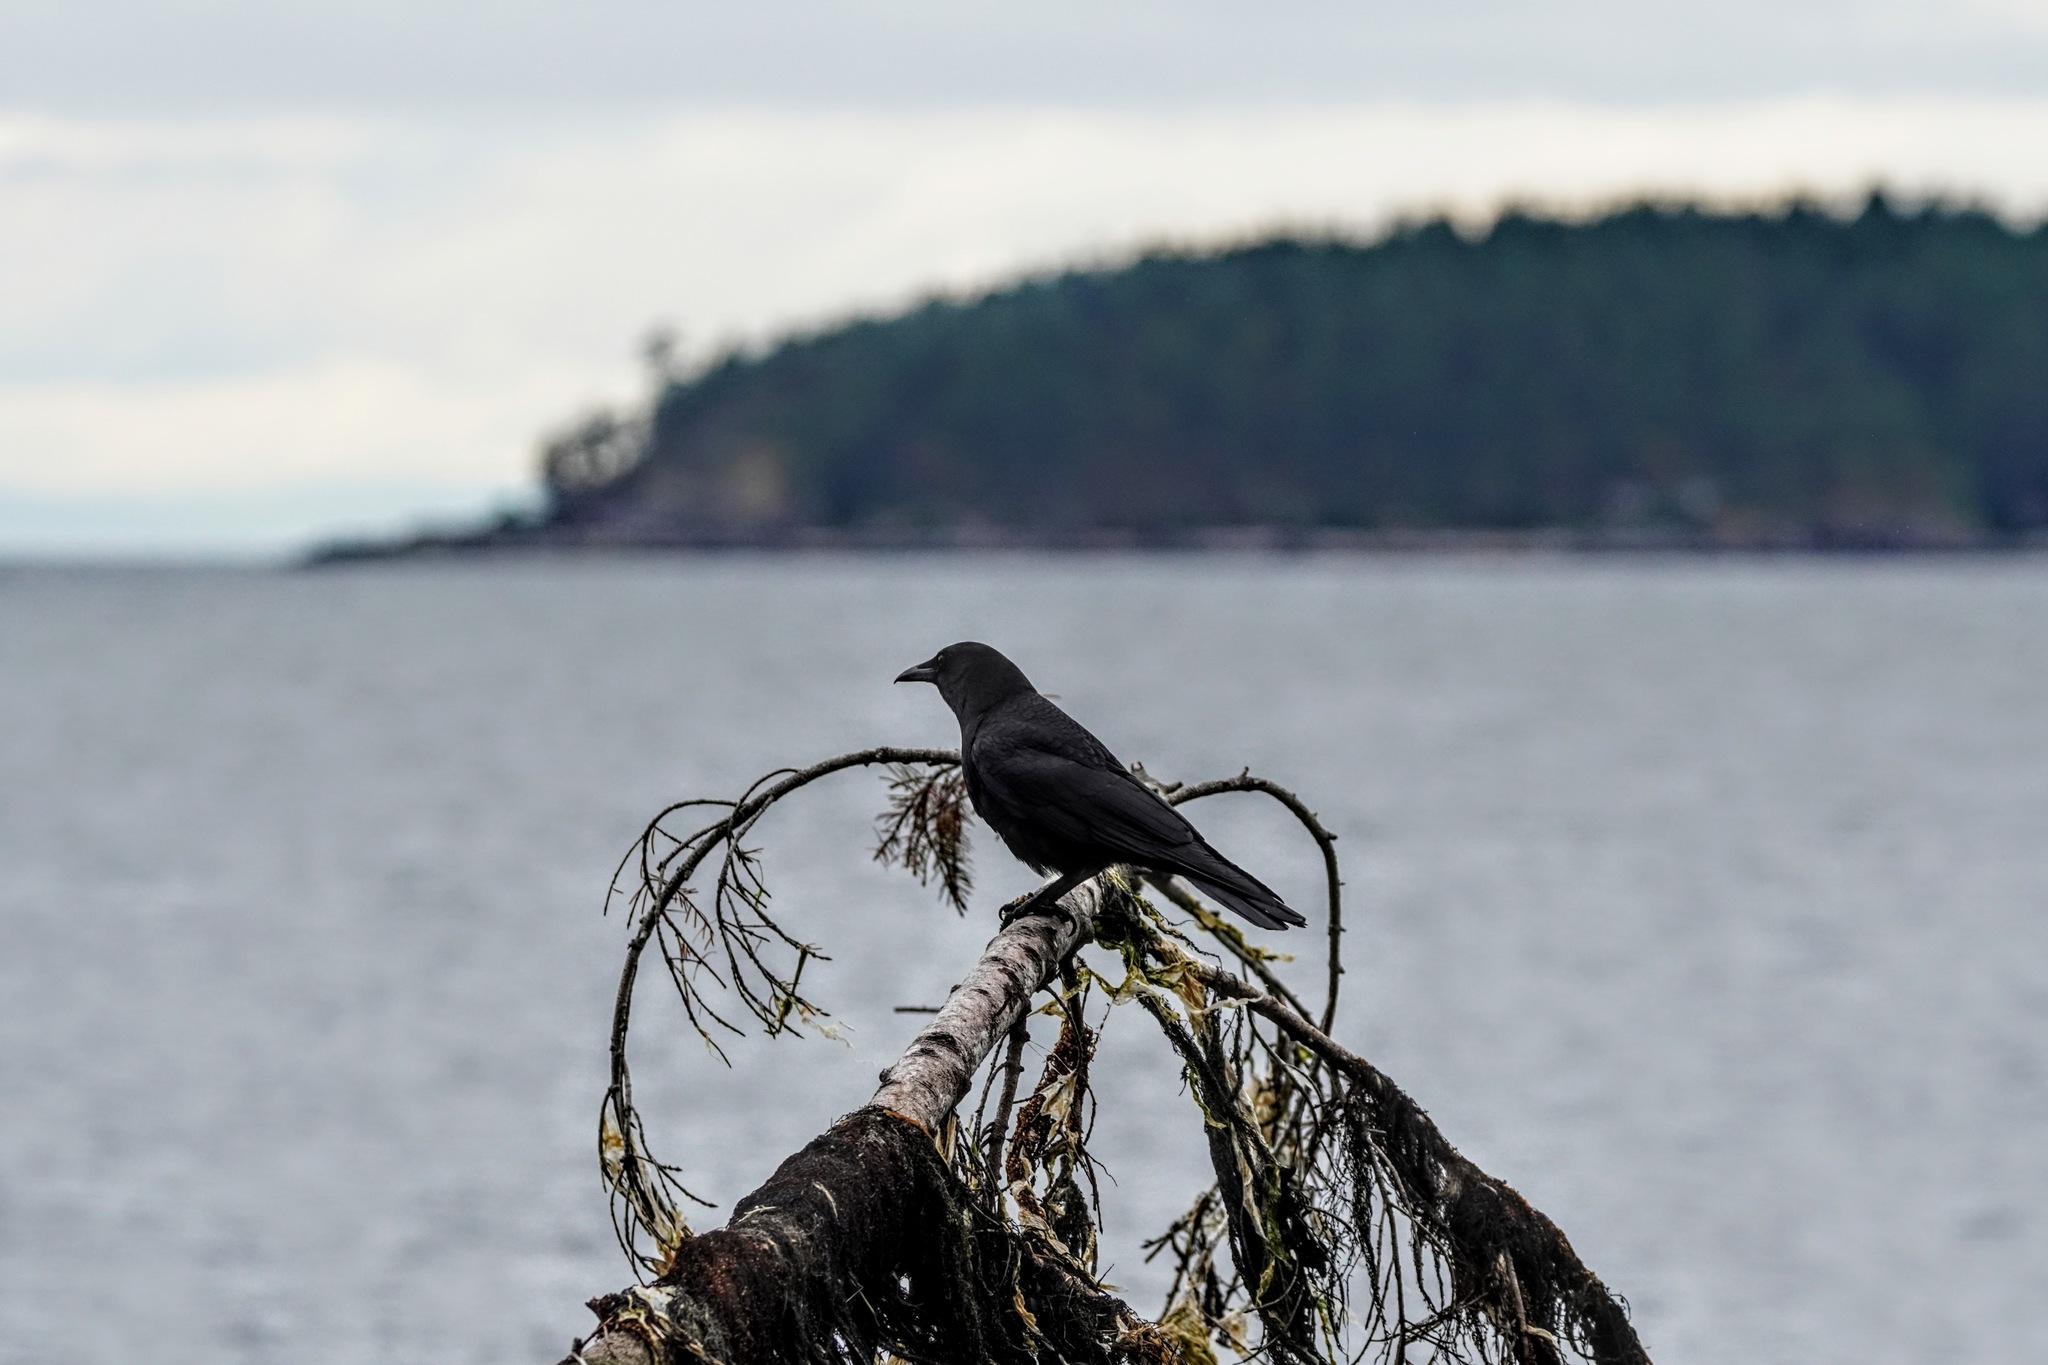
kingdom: Animalia
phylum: Chordata
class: Aves
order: Passeriformes
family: Corvidae
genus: Corvus
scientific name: Corvus brachyrhynchos
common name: American crow
